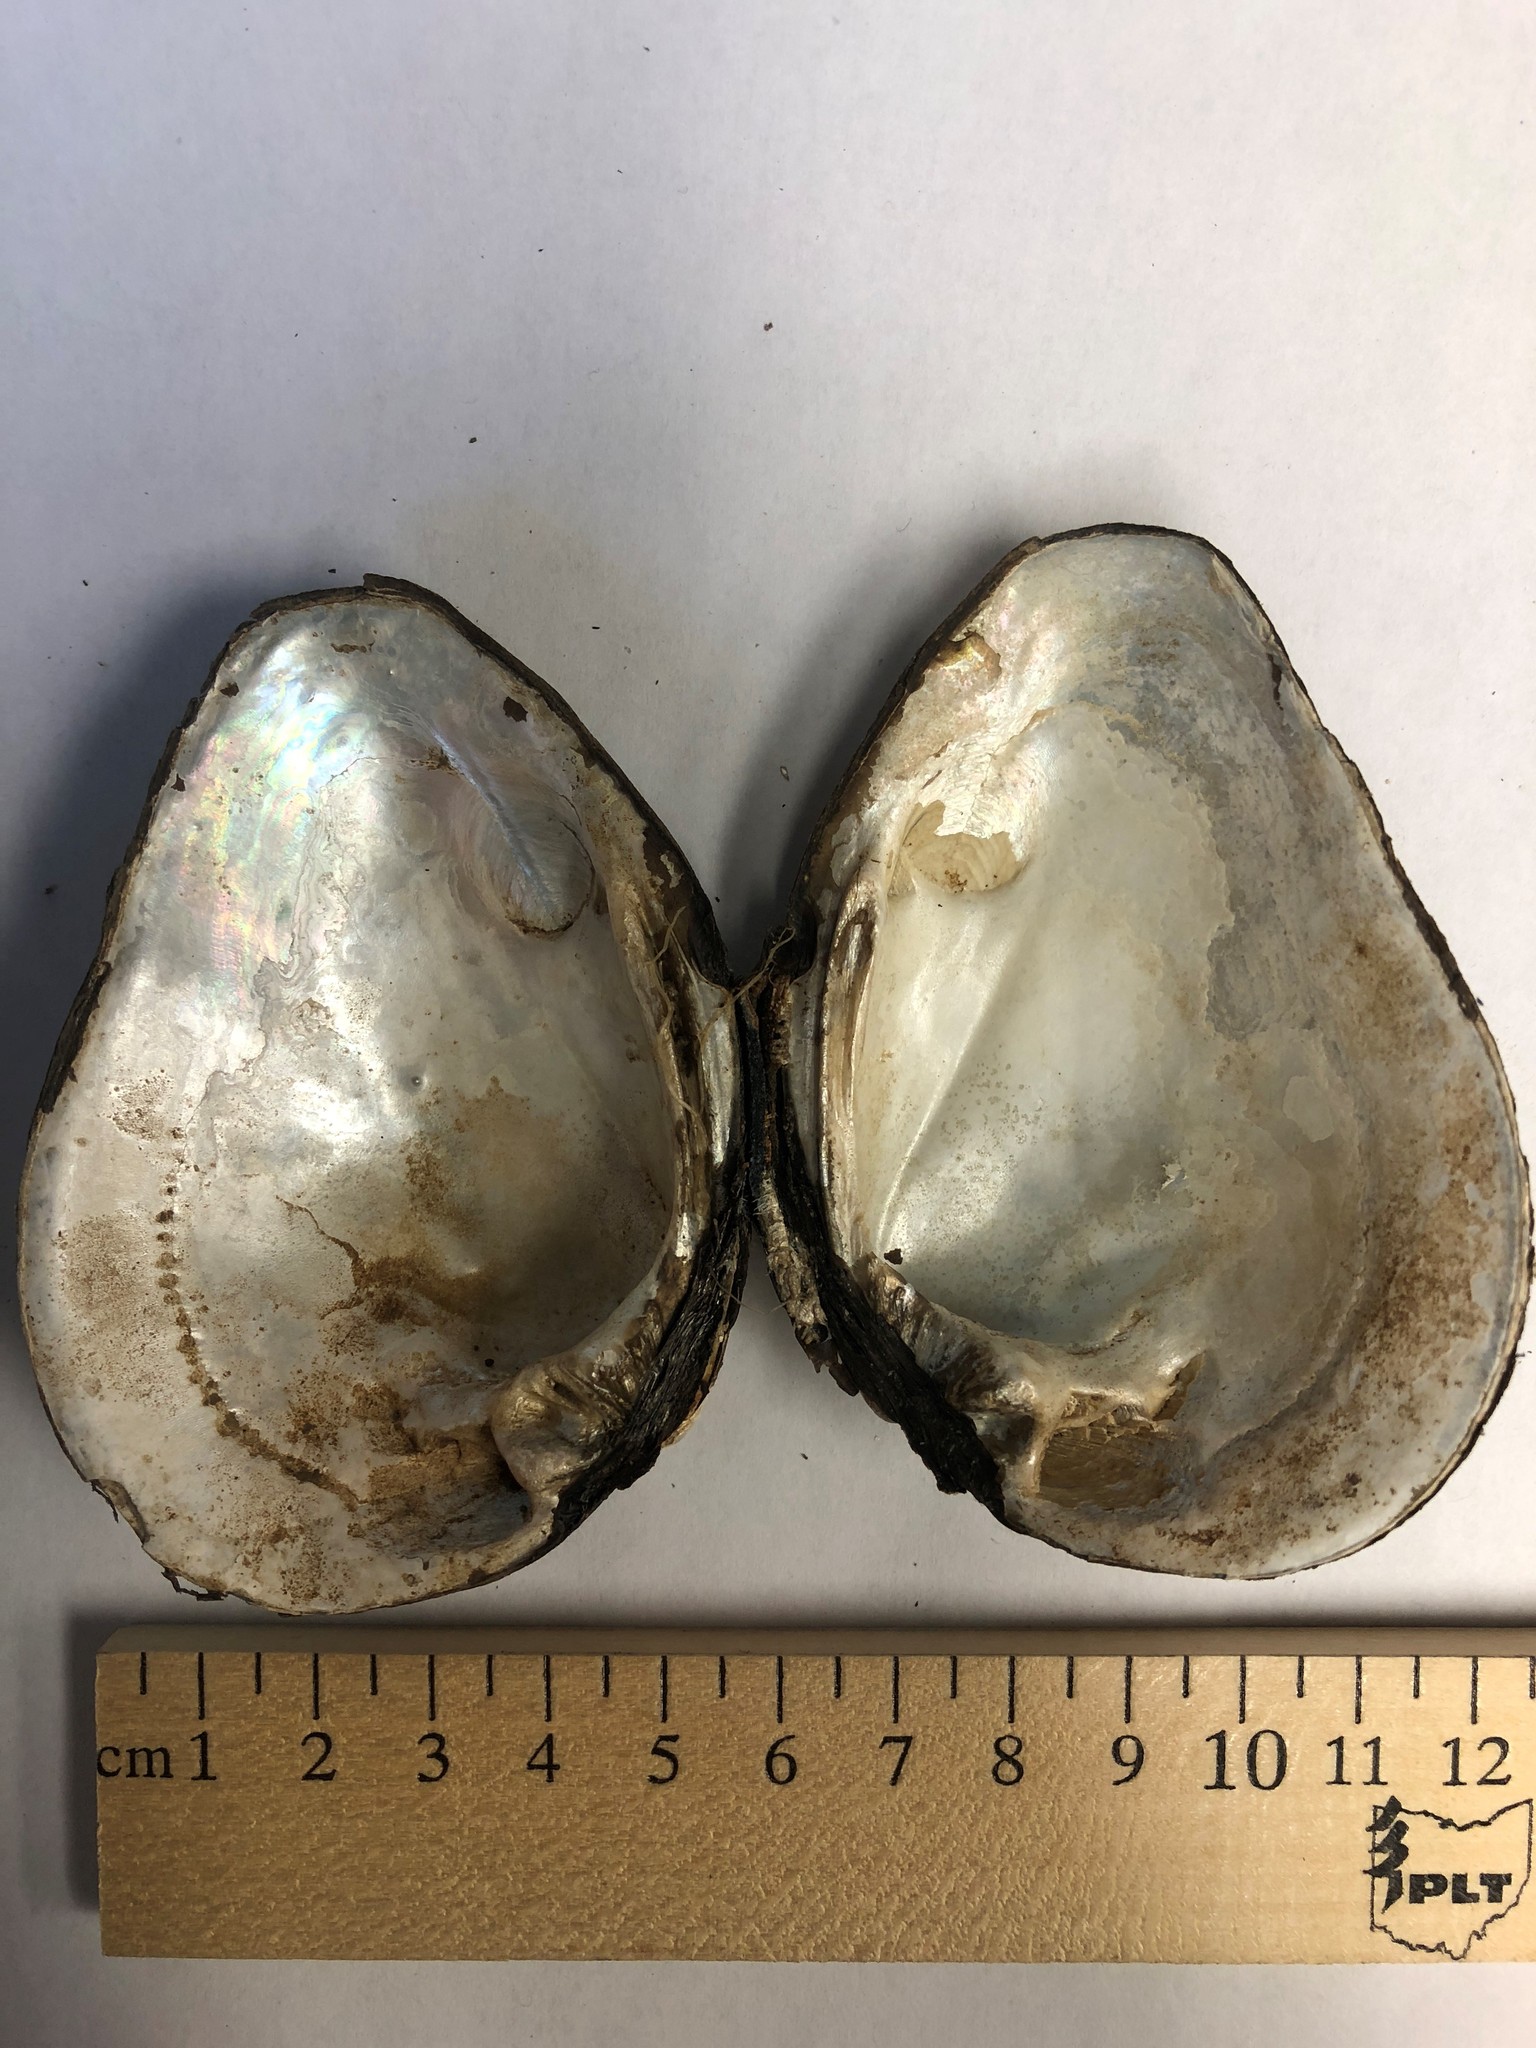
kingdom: Animalia
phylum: Mollusca
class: Bivalvia
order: Unionida
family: Unionidae
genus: Fusconaia
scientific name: Fusconaia flava
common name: Wabash pigtoe
